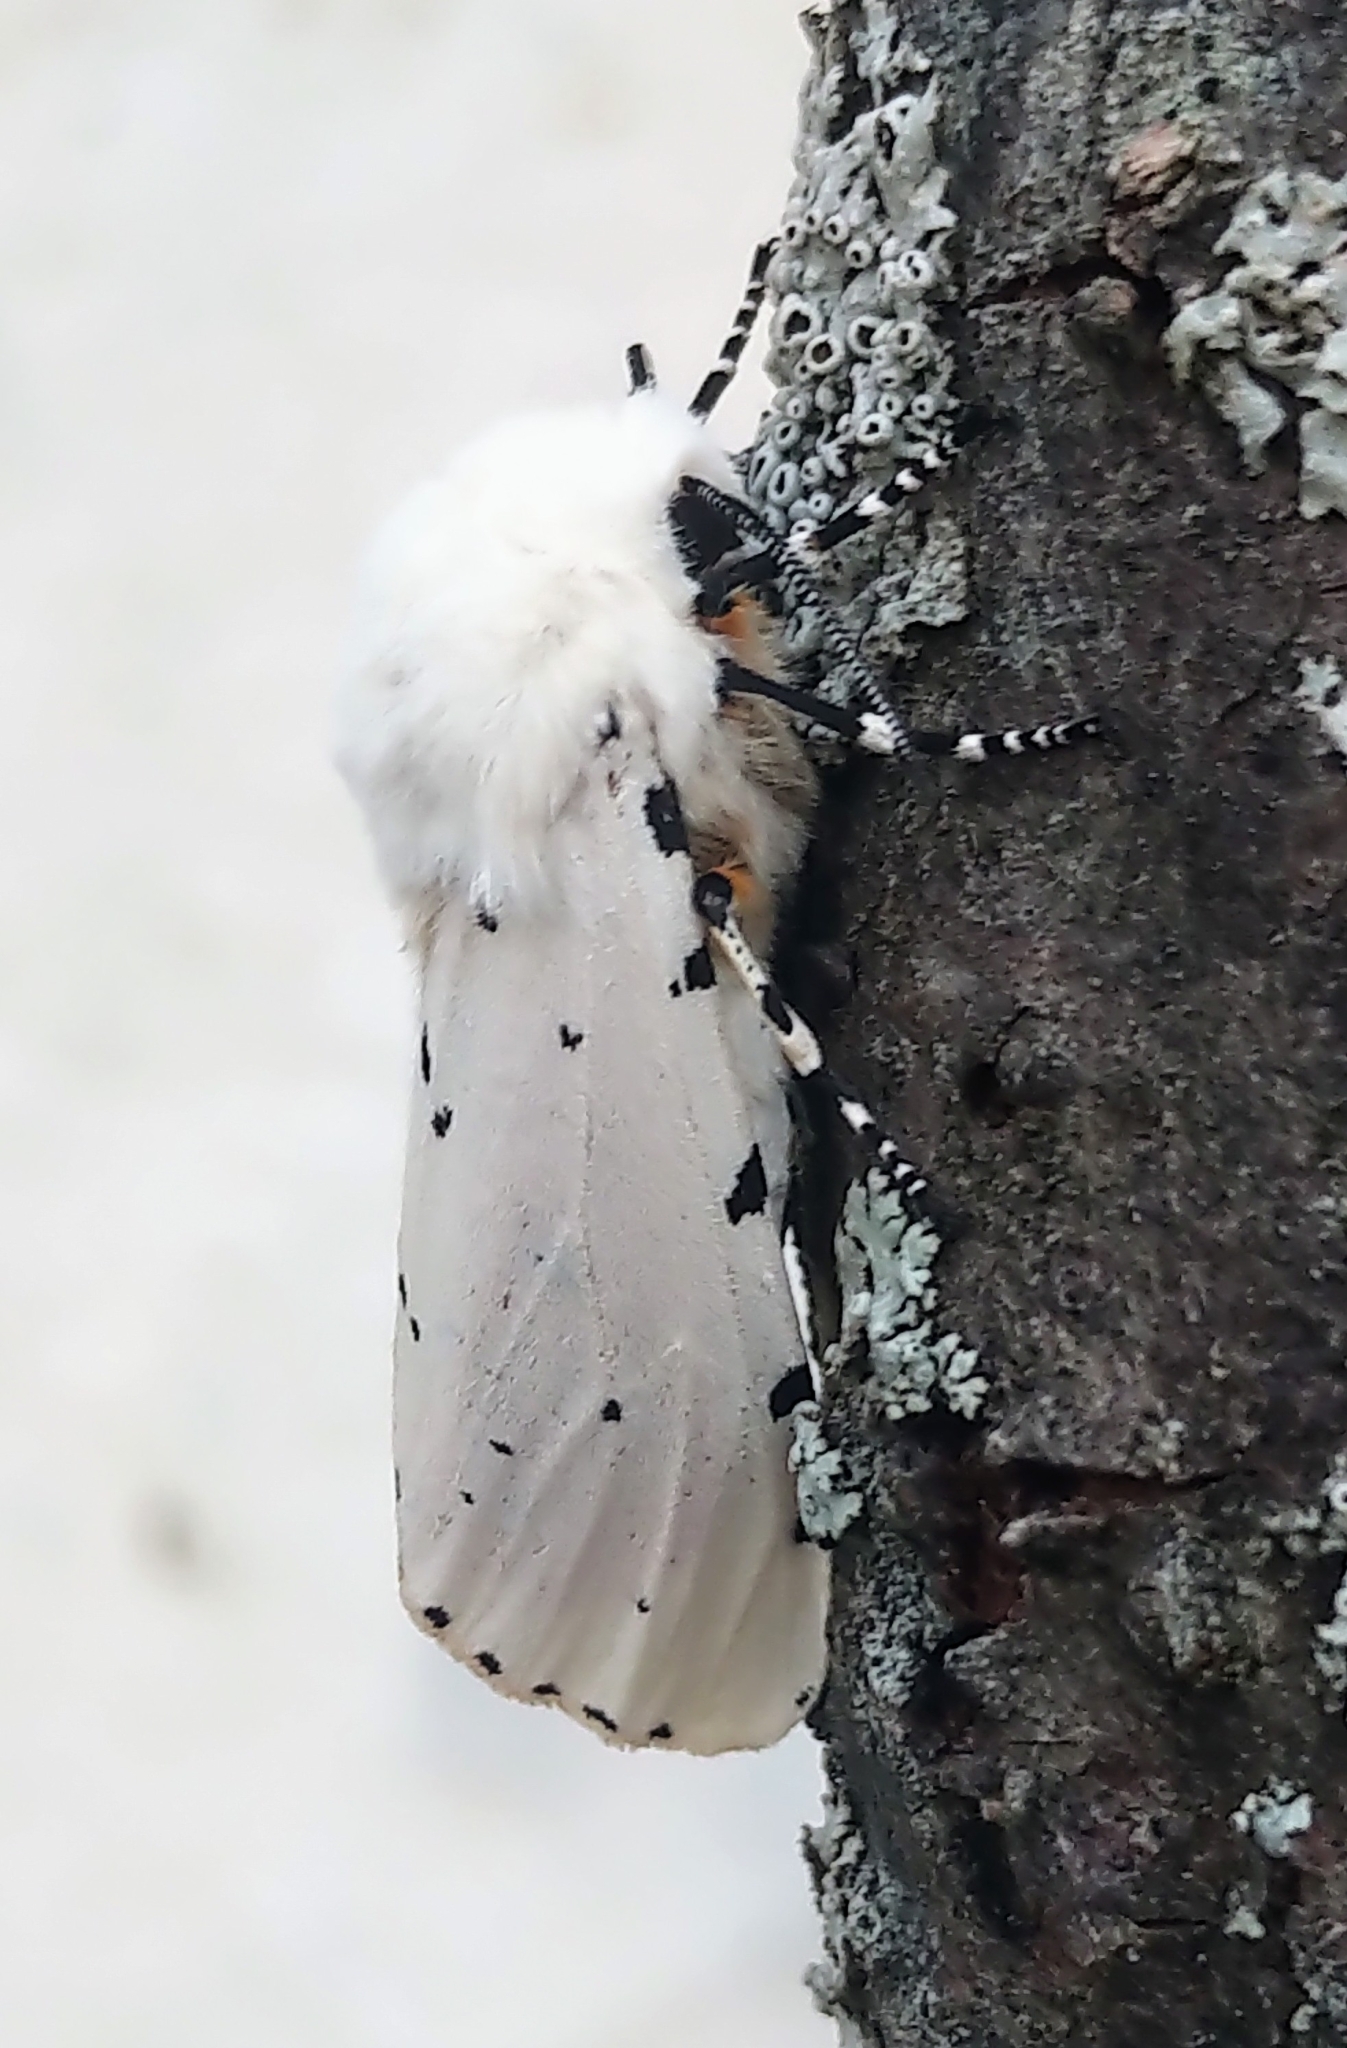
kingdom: Animalia
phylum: Arthropoda
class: Insecta
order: Lepidoptera
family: Erebidae
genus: Estigmene
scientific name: Estigmene acrea
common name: Salt marsh moth
